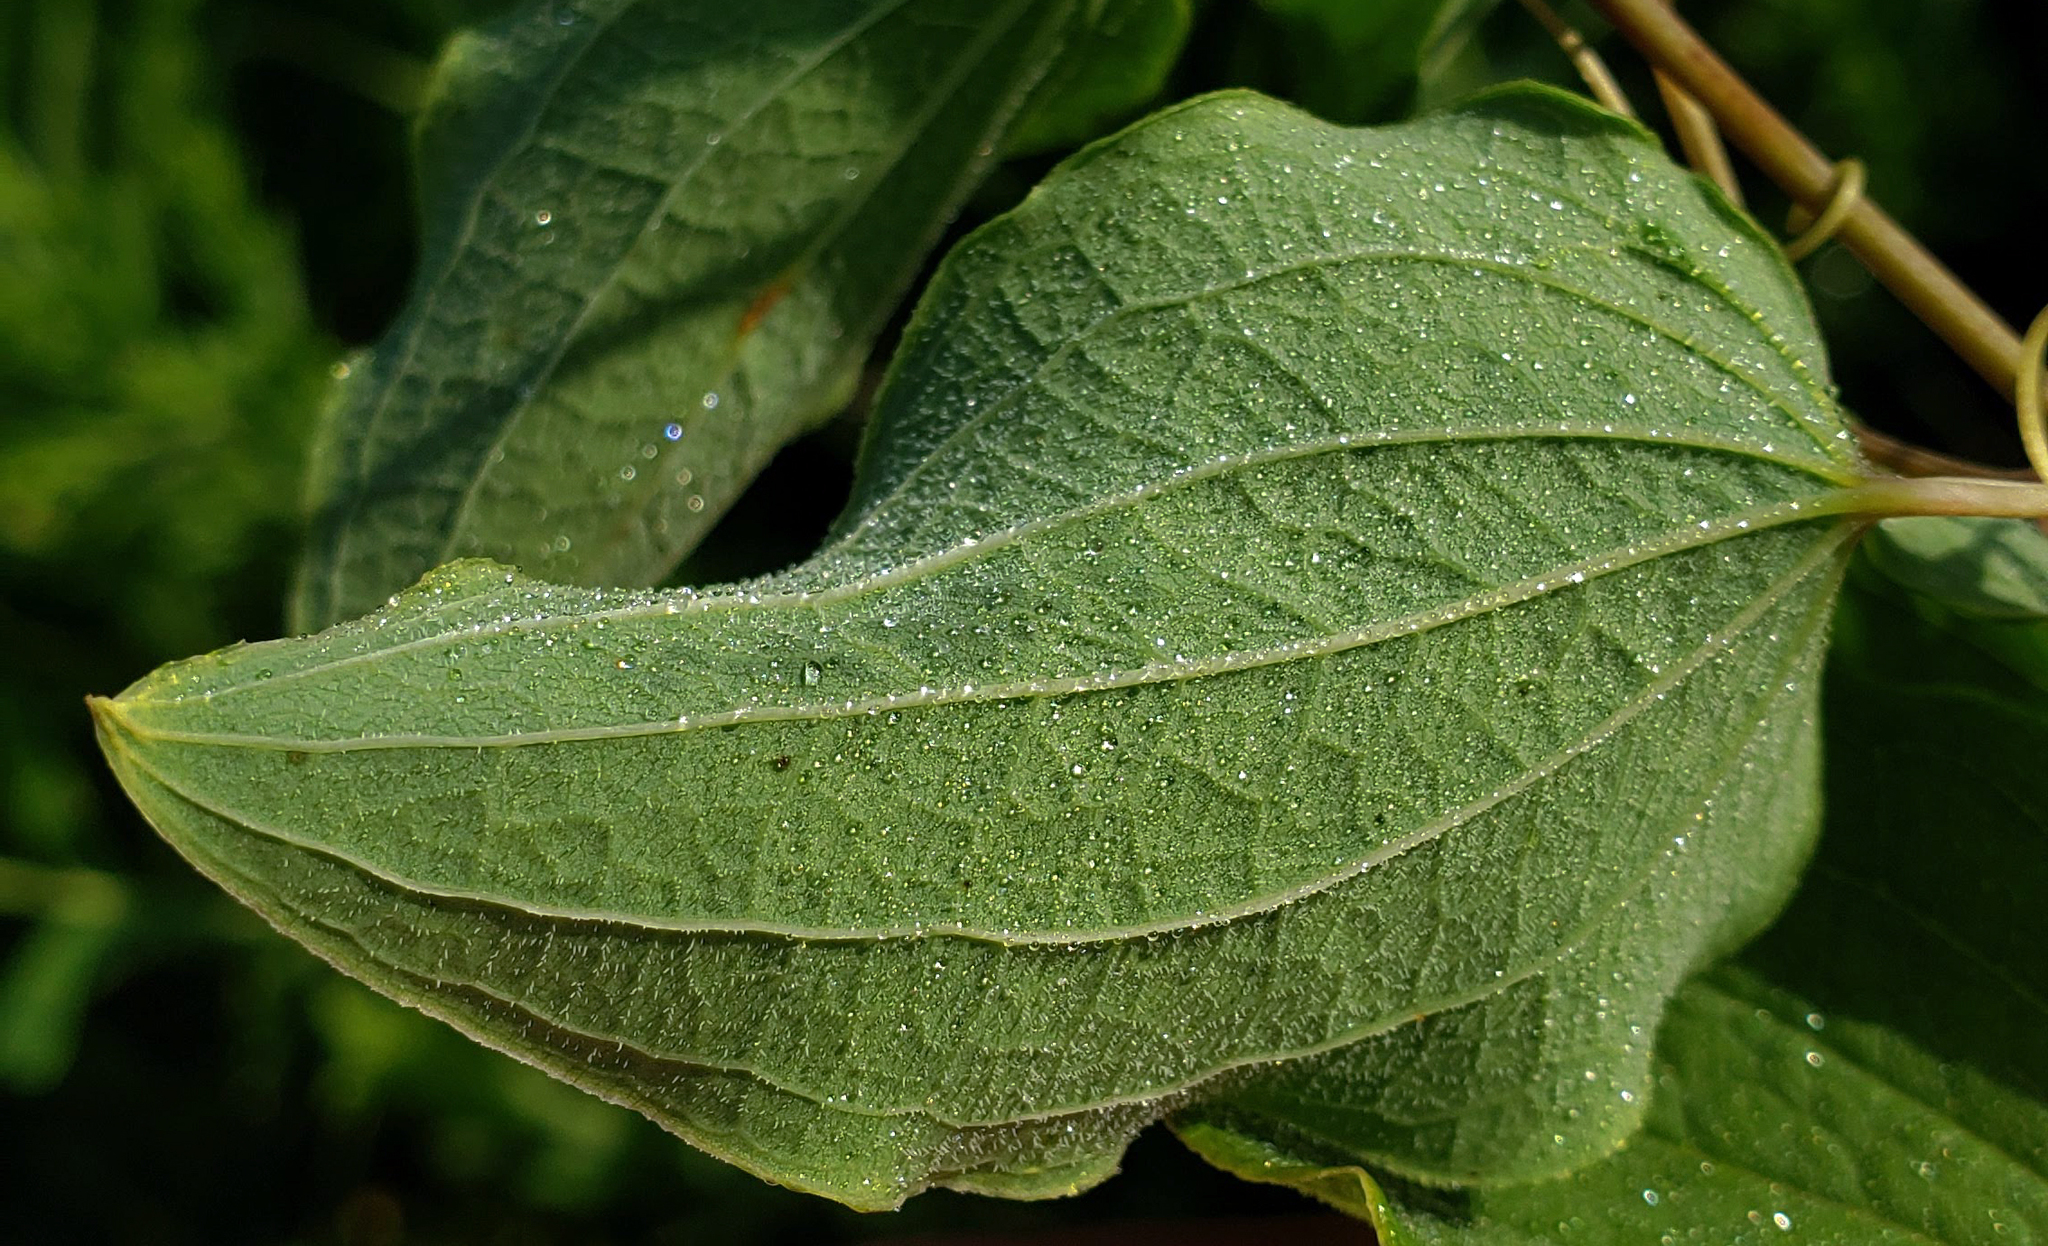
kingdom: Plantae
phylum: Tracheophyta
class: Liliopsida
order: Liliales
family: Smilacaceae
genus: Smilax
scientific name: Smilax lasioneura
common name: Blue ridge carrionflower
